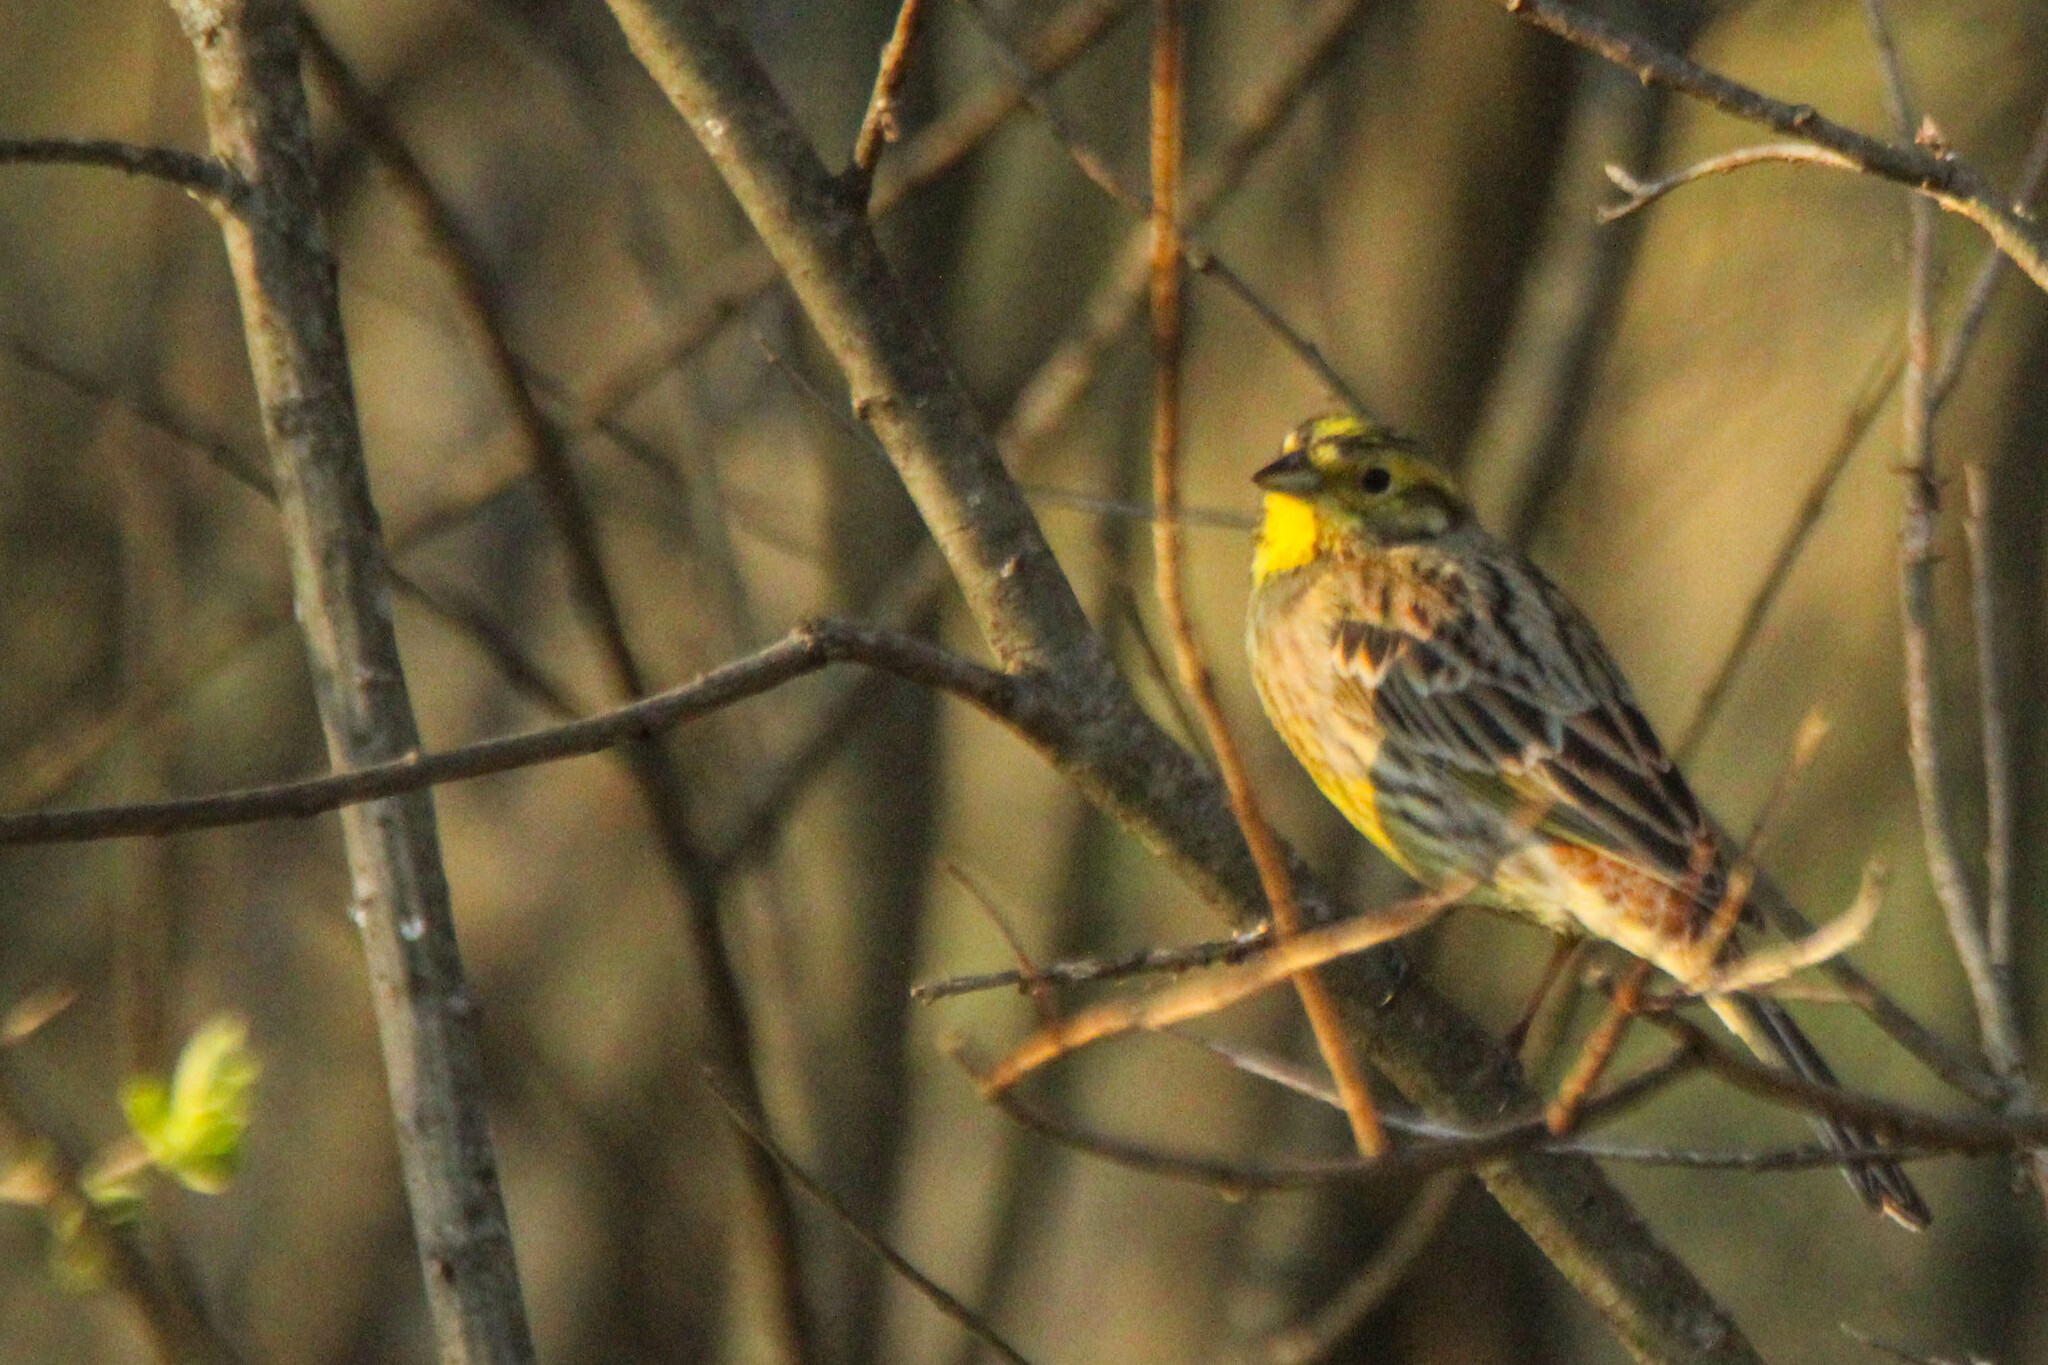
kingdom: Animalia
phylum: Chordata
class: Aves
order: Passeriformes
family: Emberizidae
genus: Emberiza
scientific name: Emberiza citrinella
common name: Yellowhammer
